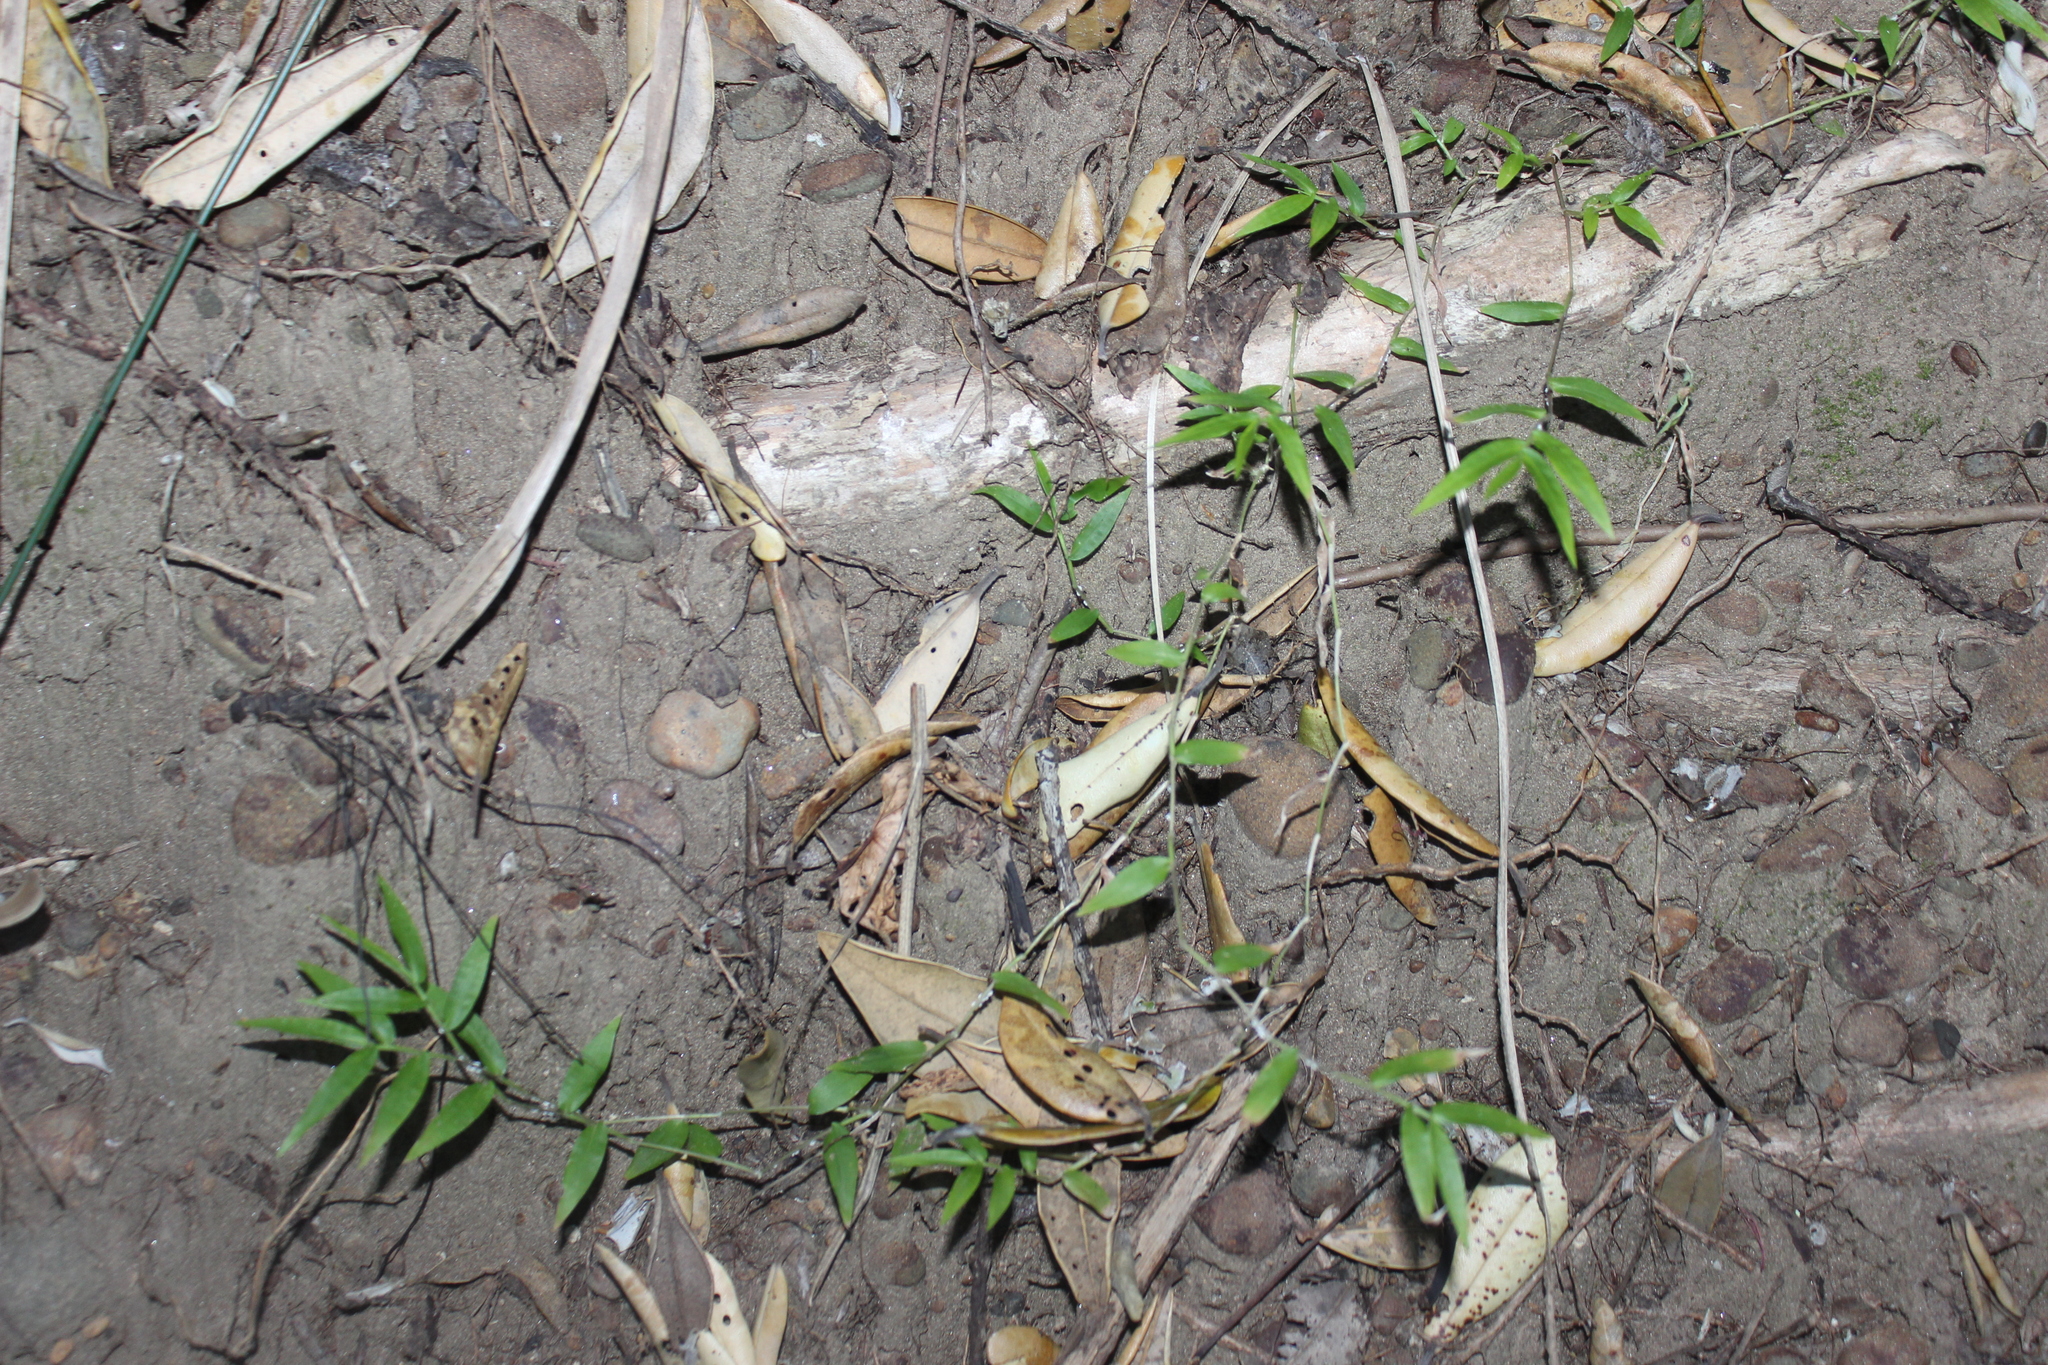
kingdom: Plantae
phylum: Tracheophyta
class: Liliopsida
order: Poales
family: Poaceae
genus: Oplismenus
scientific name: Oplismenus hirtellus
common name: Basketgrass
